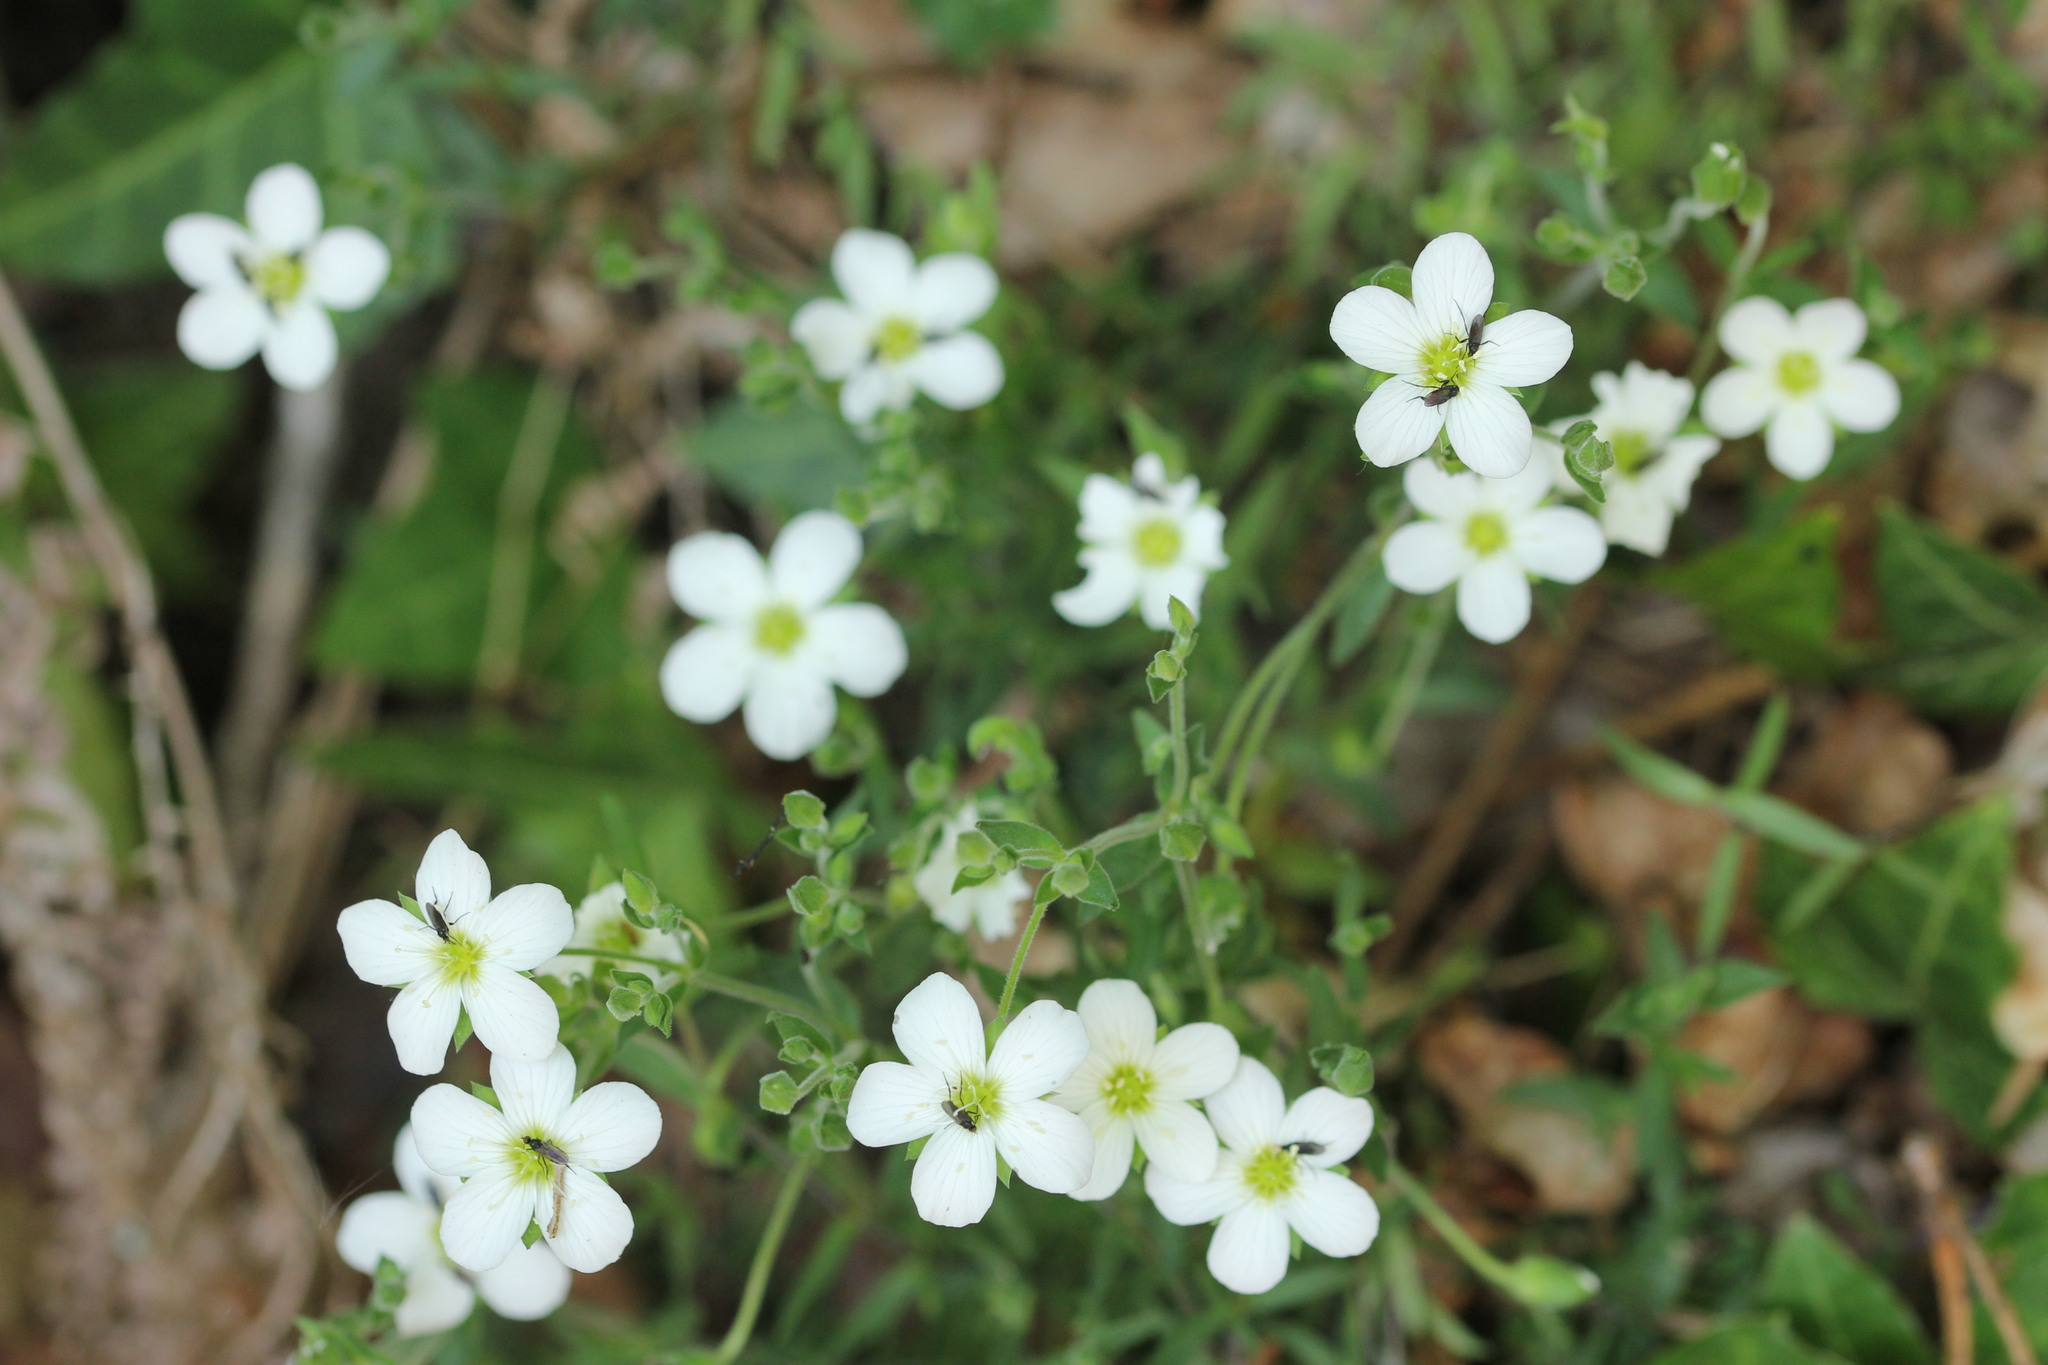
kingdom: Plantae
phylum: Tracheophyta
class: Magnoliopsida
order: Caryophyllales
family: Caryophyllaceae
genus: Arenaria
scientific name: Arenaria montana
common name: Mountain sandwort
